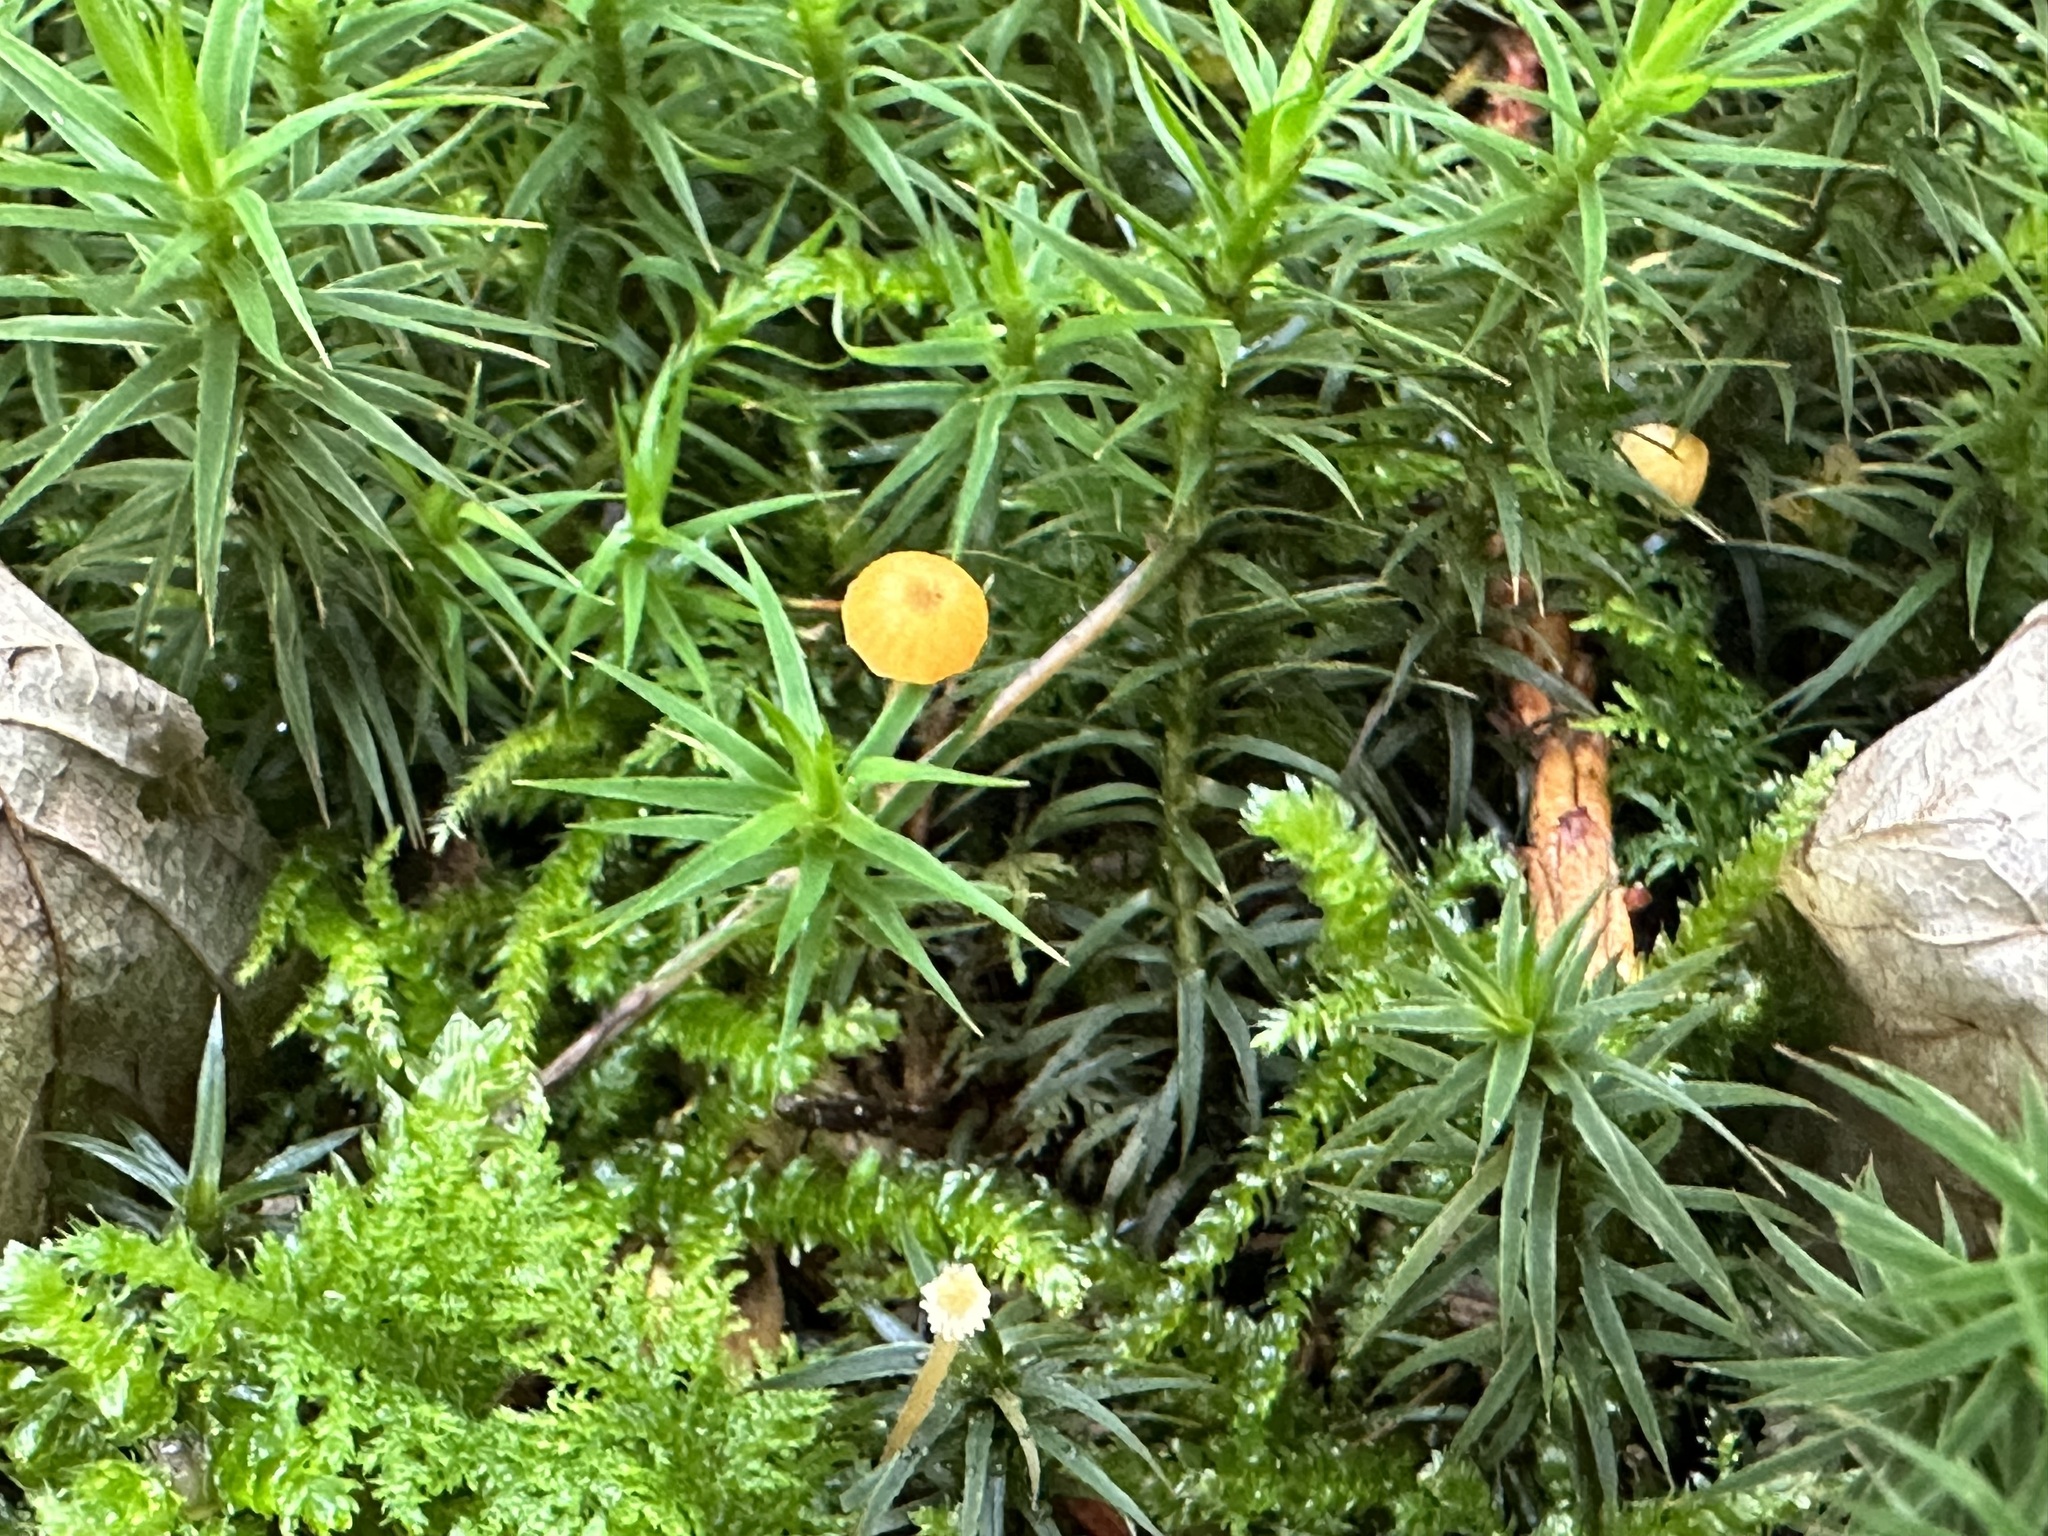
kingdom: Fungi
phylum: Basidiomycota
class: Agaricomycetes
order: Hymenochaetales
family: Rickenellaceae
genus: Rickenella
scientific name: Rickenella fibula
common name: Orange mosscap
